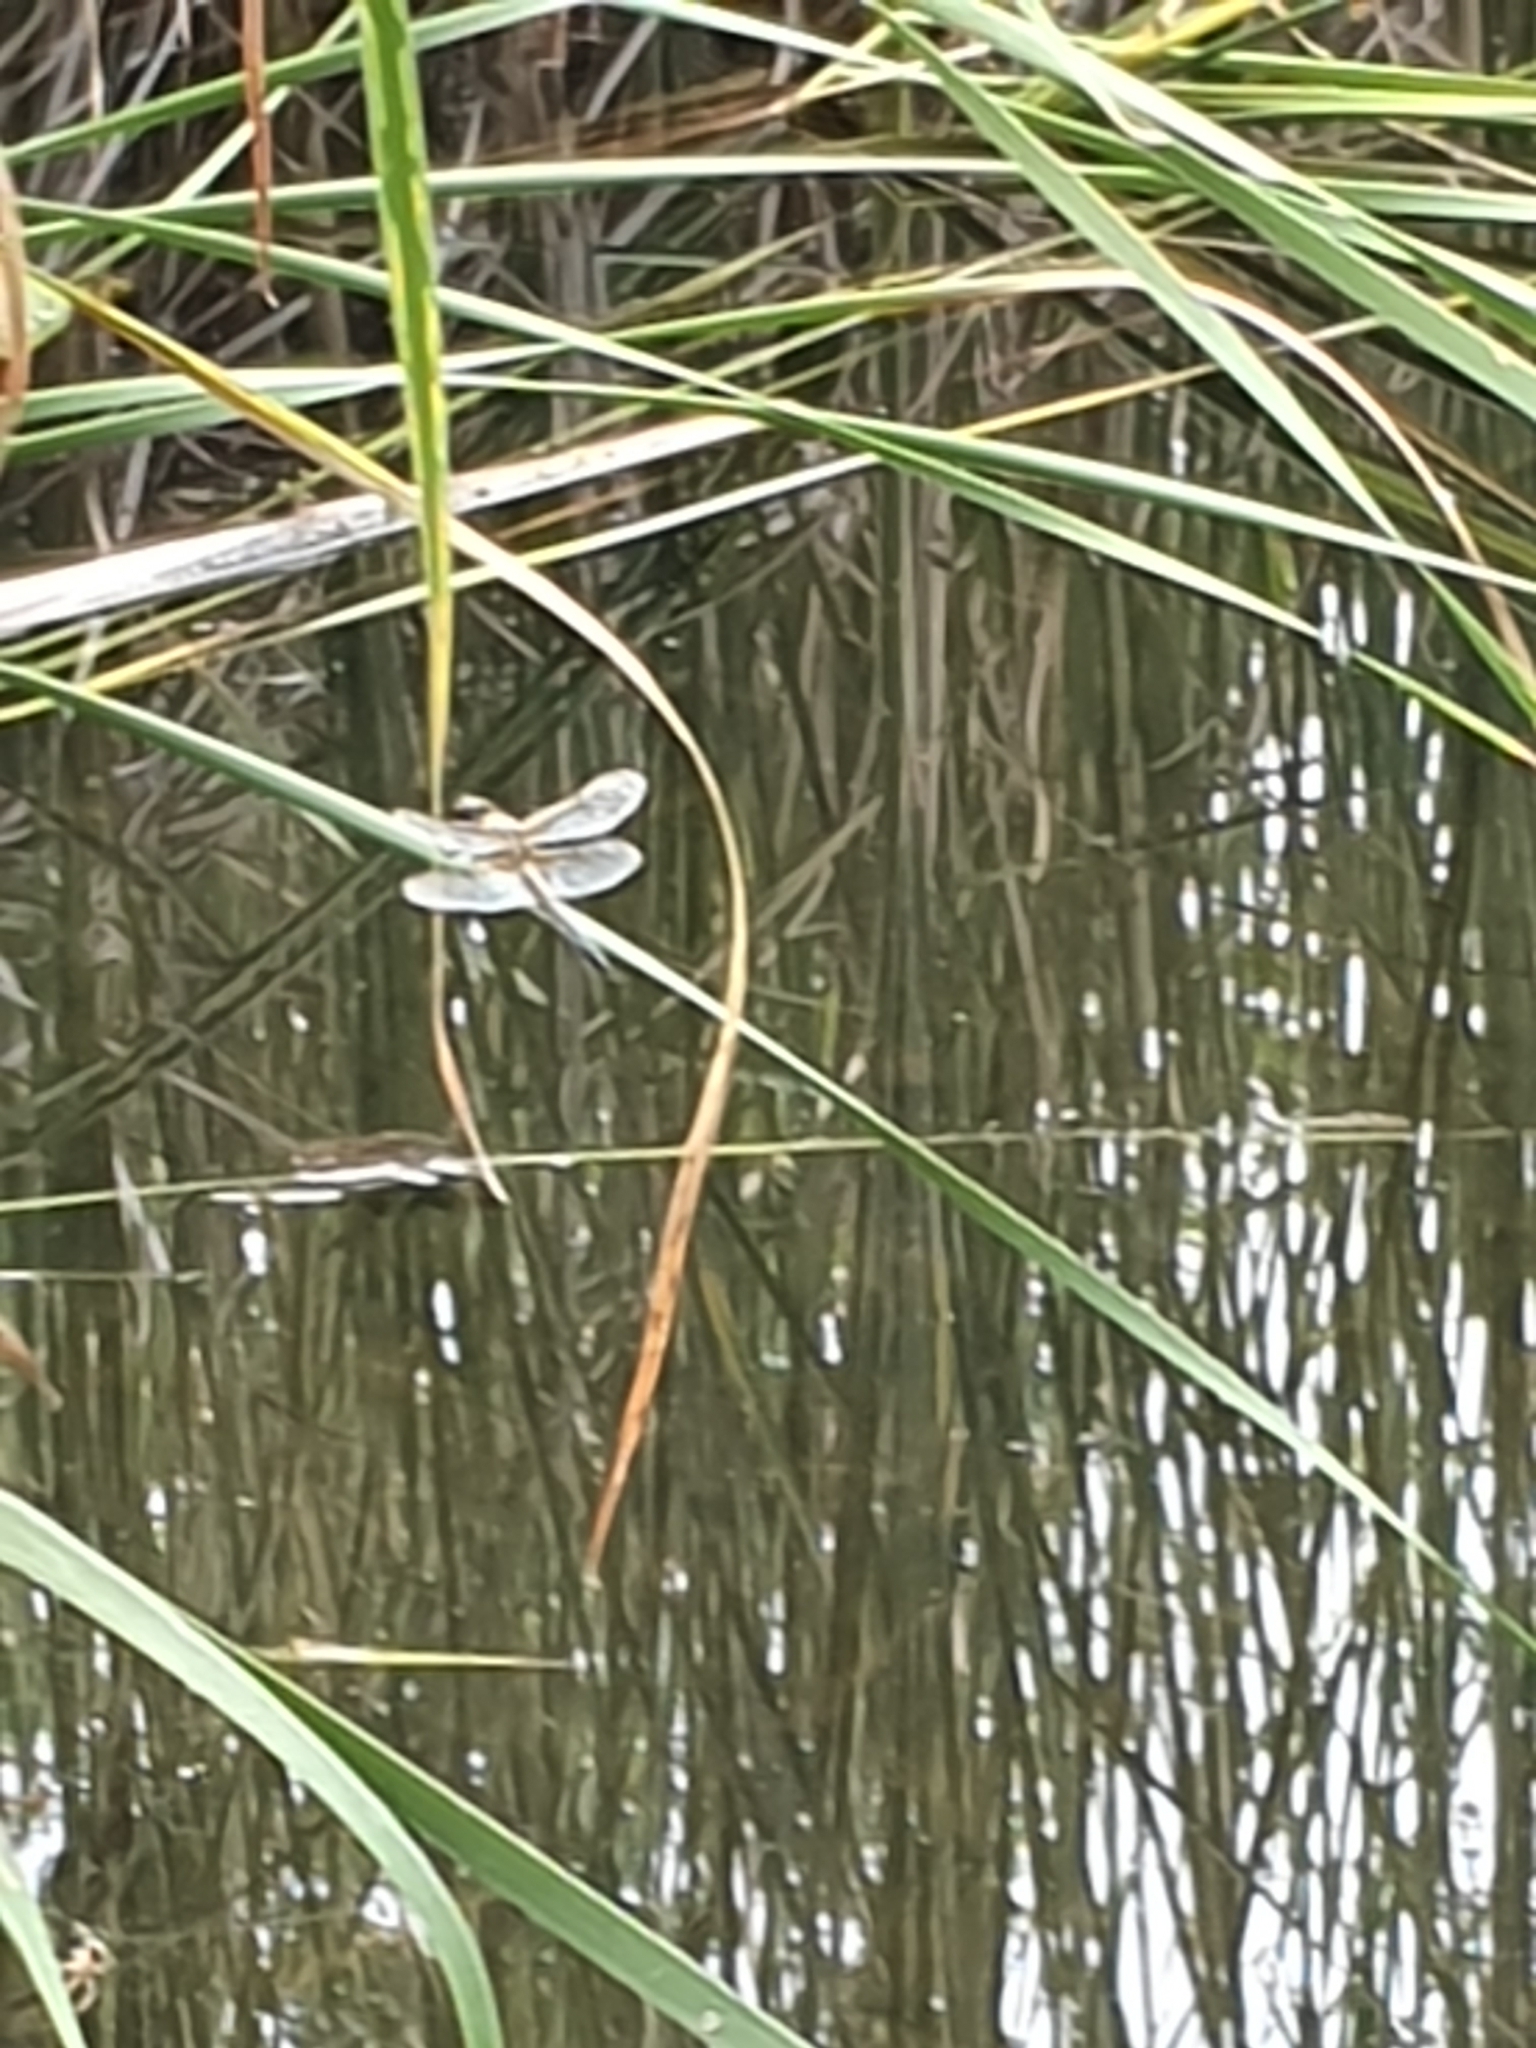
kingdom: Animalia
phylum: Arthropoda
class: Insecta
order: Odonata
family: Libellulidae
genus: Libellula
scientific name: Libellula quadrimaculata
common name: Four-spotted chaser
